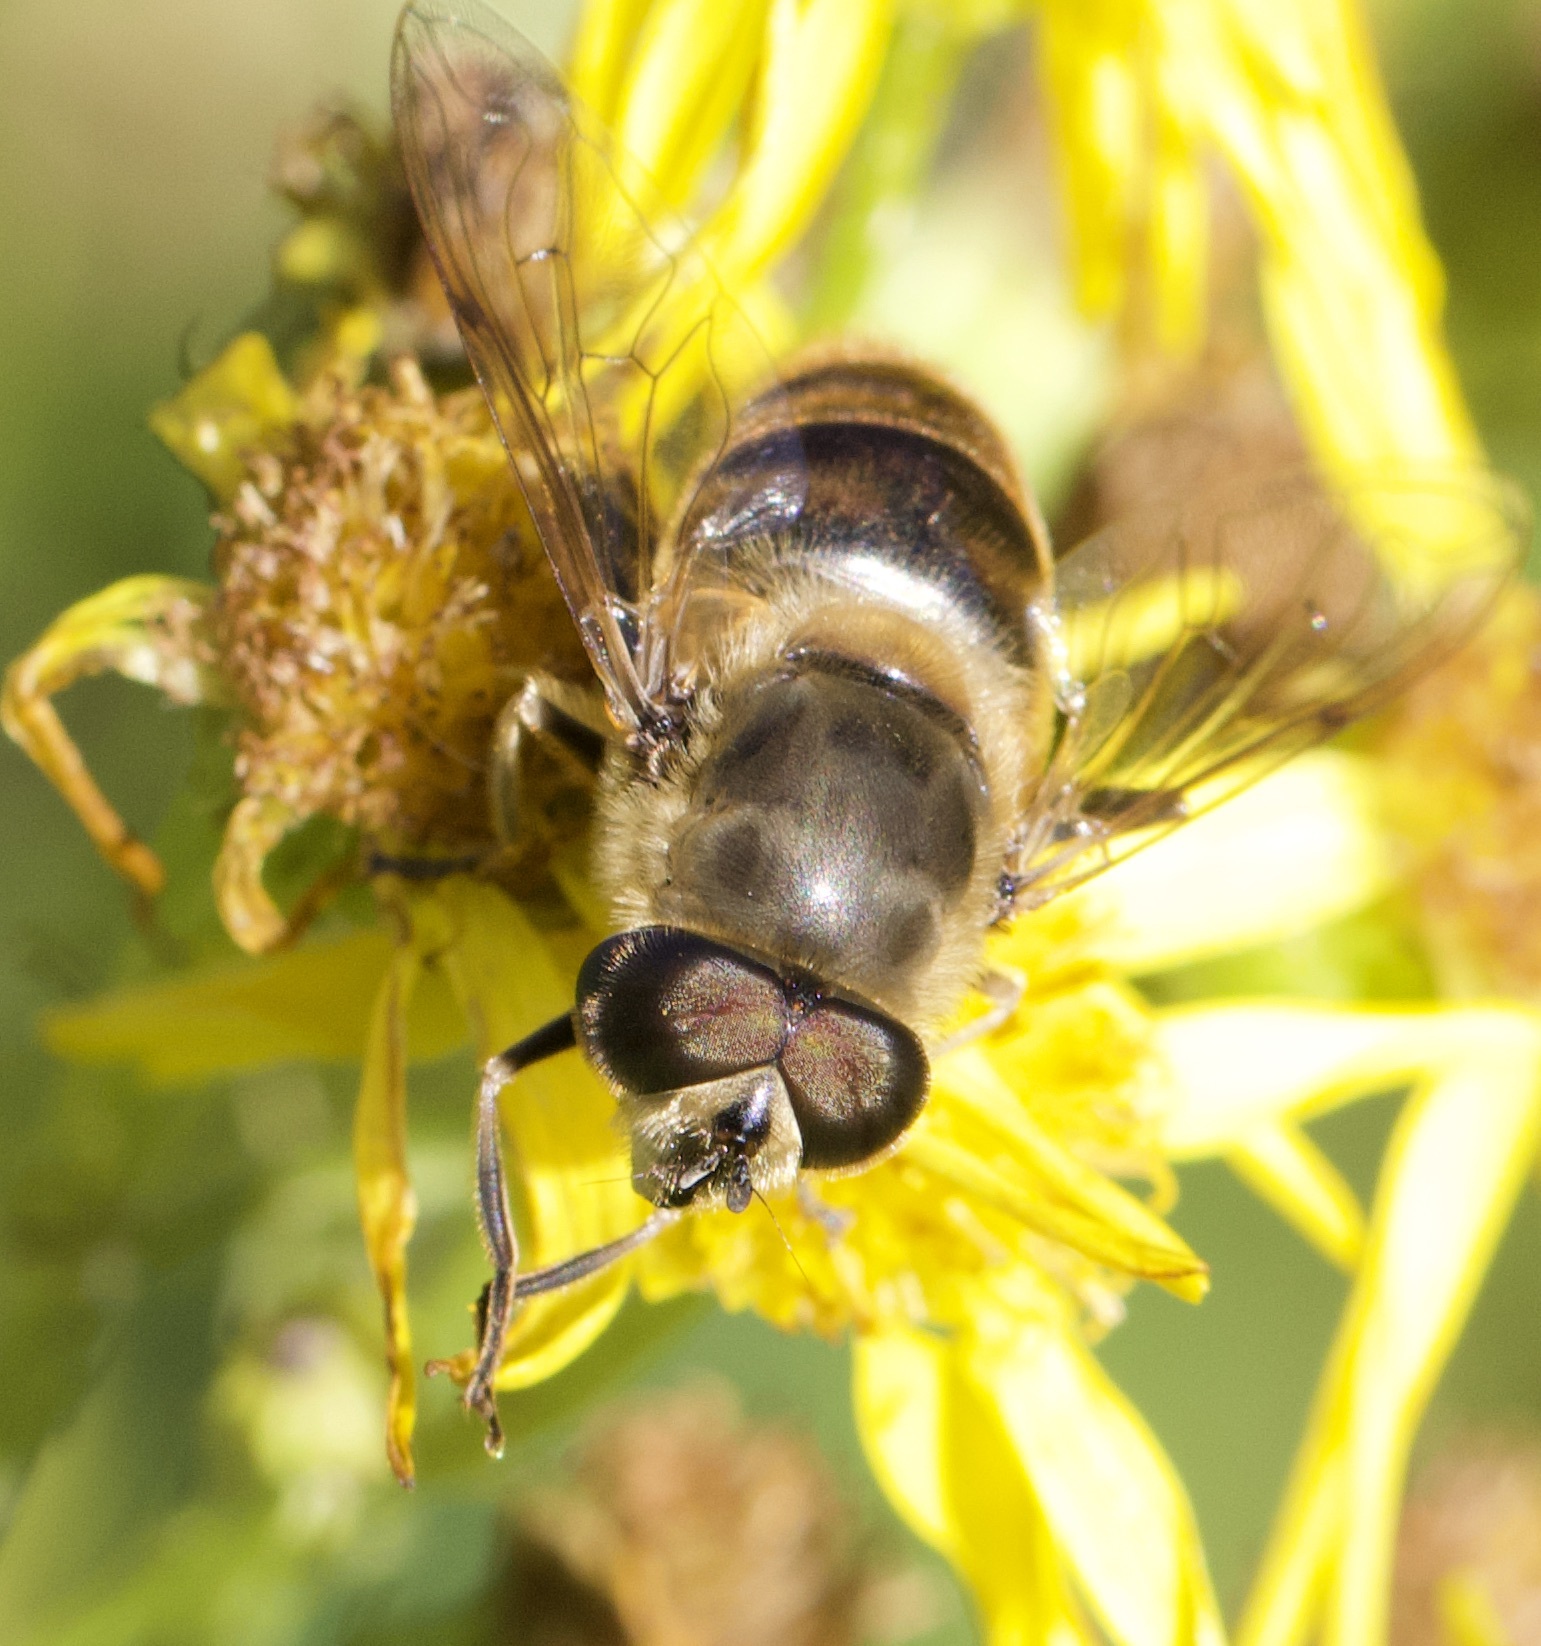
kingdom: Animalia
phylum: Arthropoda
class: Insecta
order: Diptera
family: Syrphidae
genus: Eristalis
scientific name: Eristalis tenax
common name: Drone fly
